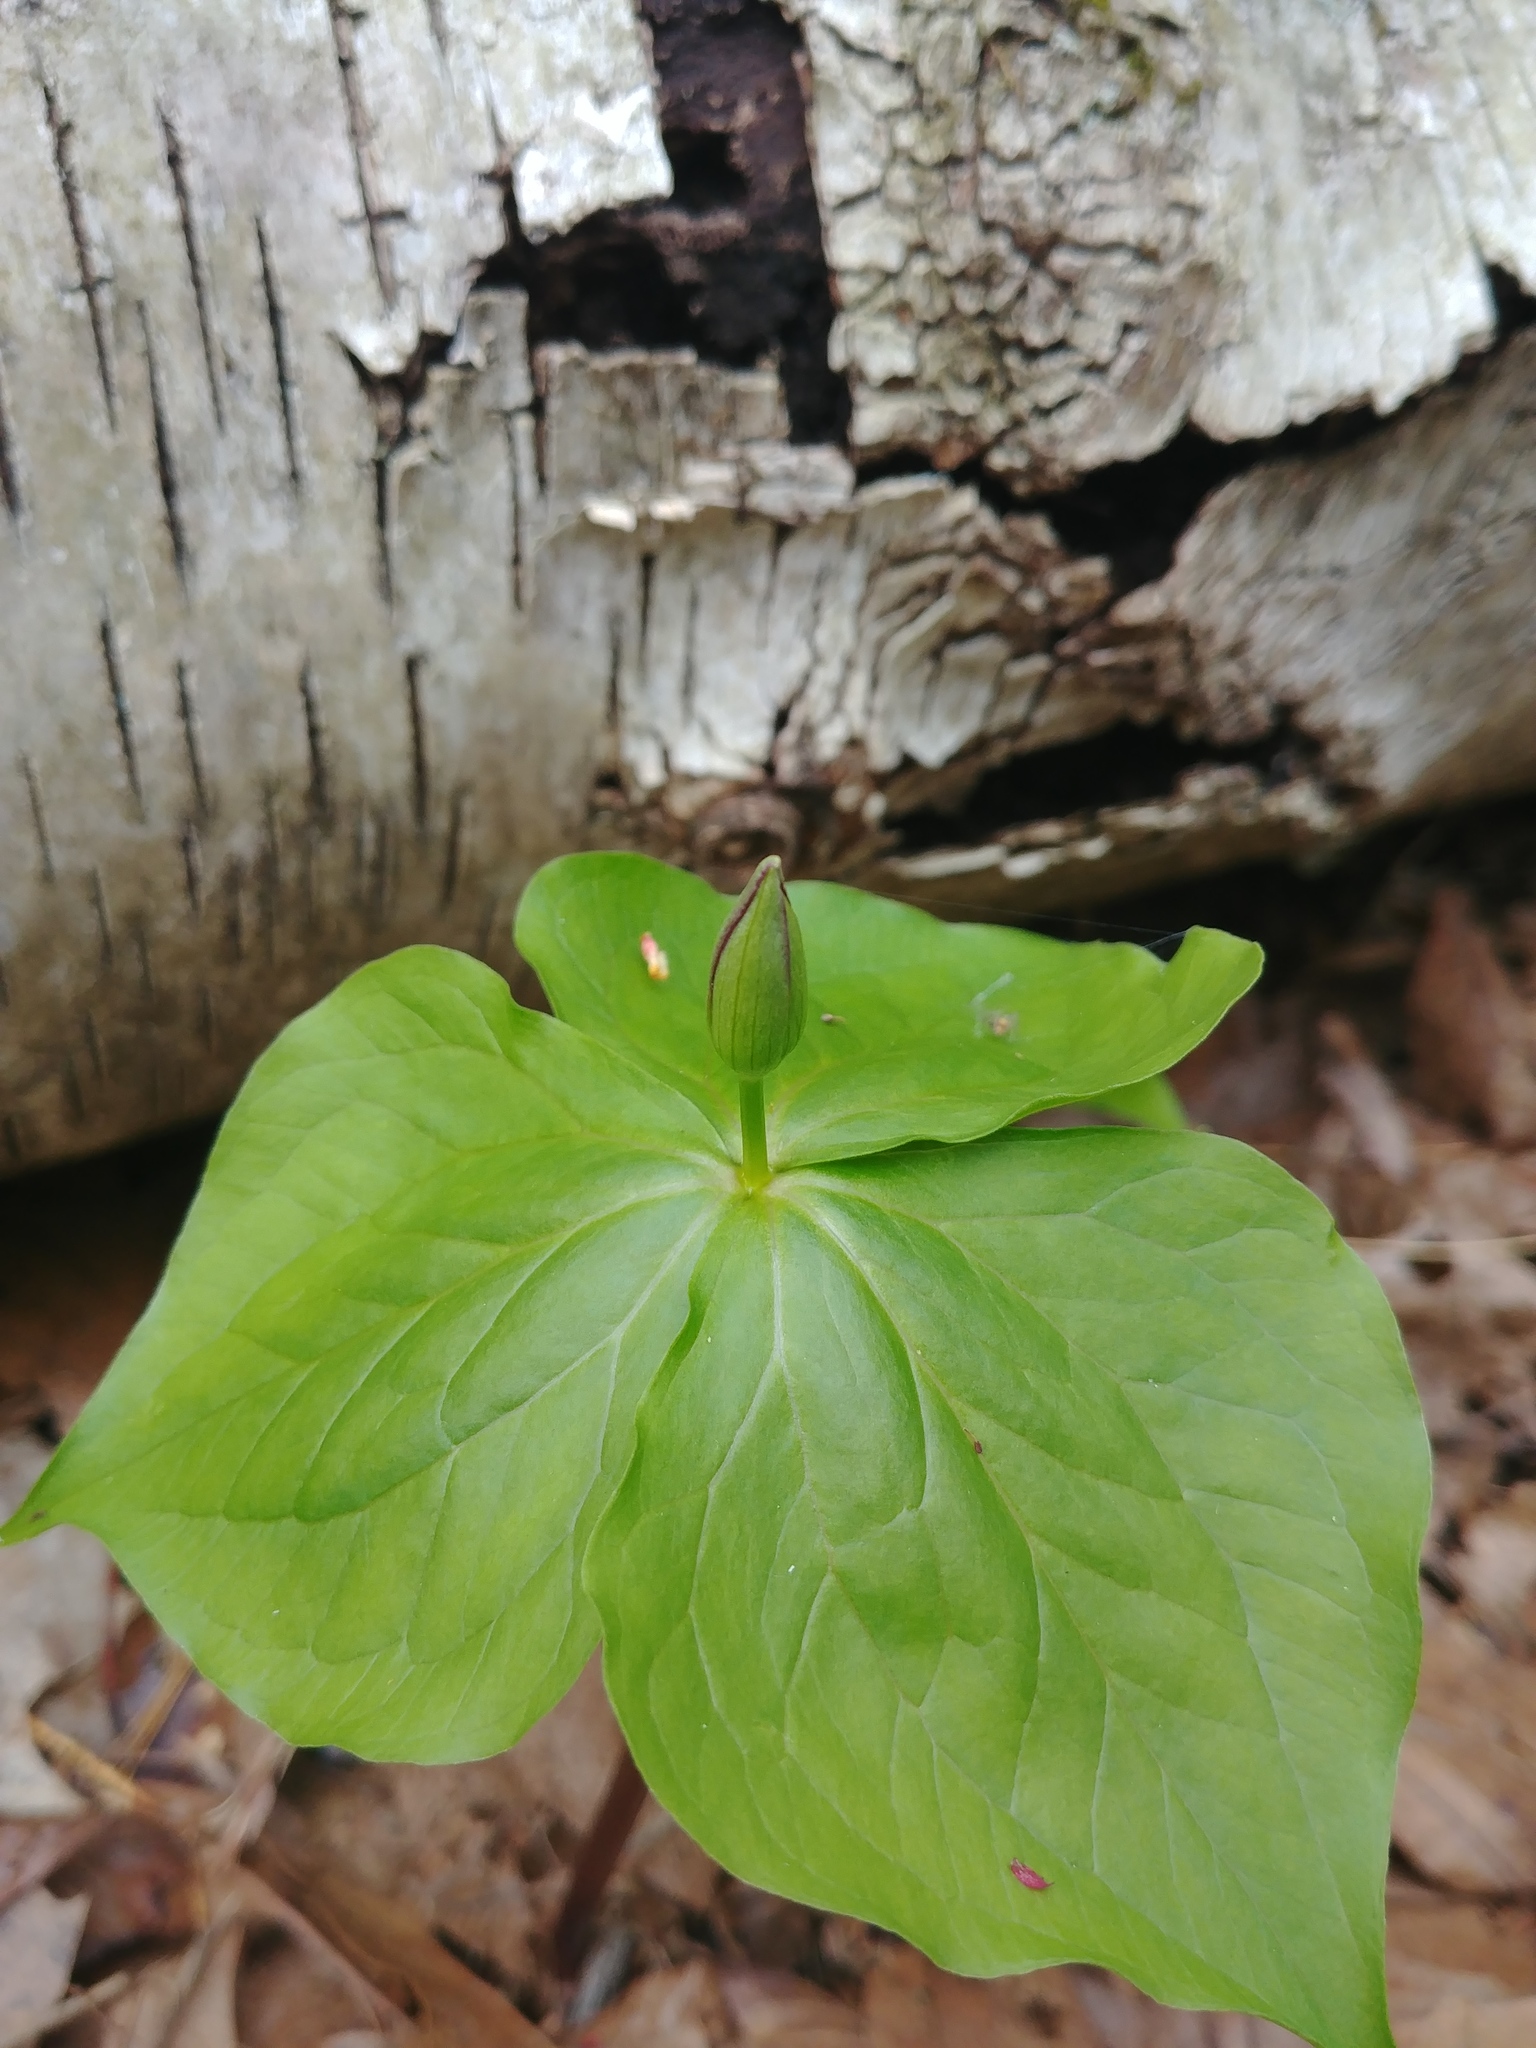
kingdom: Plantae
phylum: Tracheophyta
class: Liliopsida
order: Liliales
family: Melanthiaceae
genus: Trillium
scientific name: Trillium erectum
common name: Purple trillium
